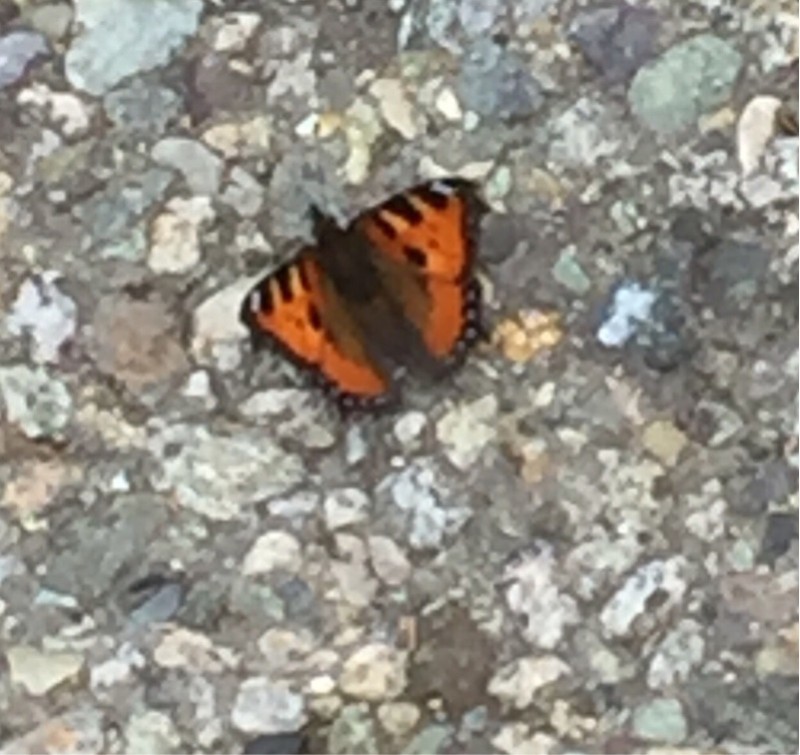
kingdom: Animalia
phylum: Arthropoda
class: Insecta
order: Lepidoptera
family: Nymphalidae
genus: Aglais
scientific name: Aglais urticae
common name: Small tortoiseshell
